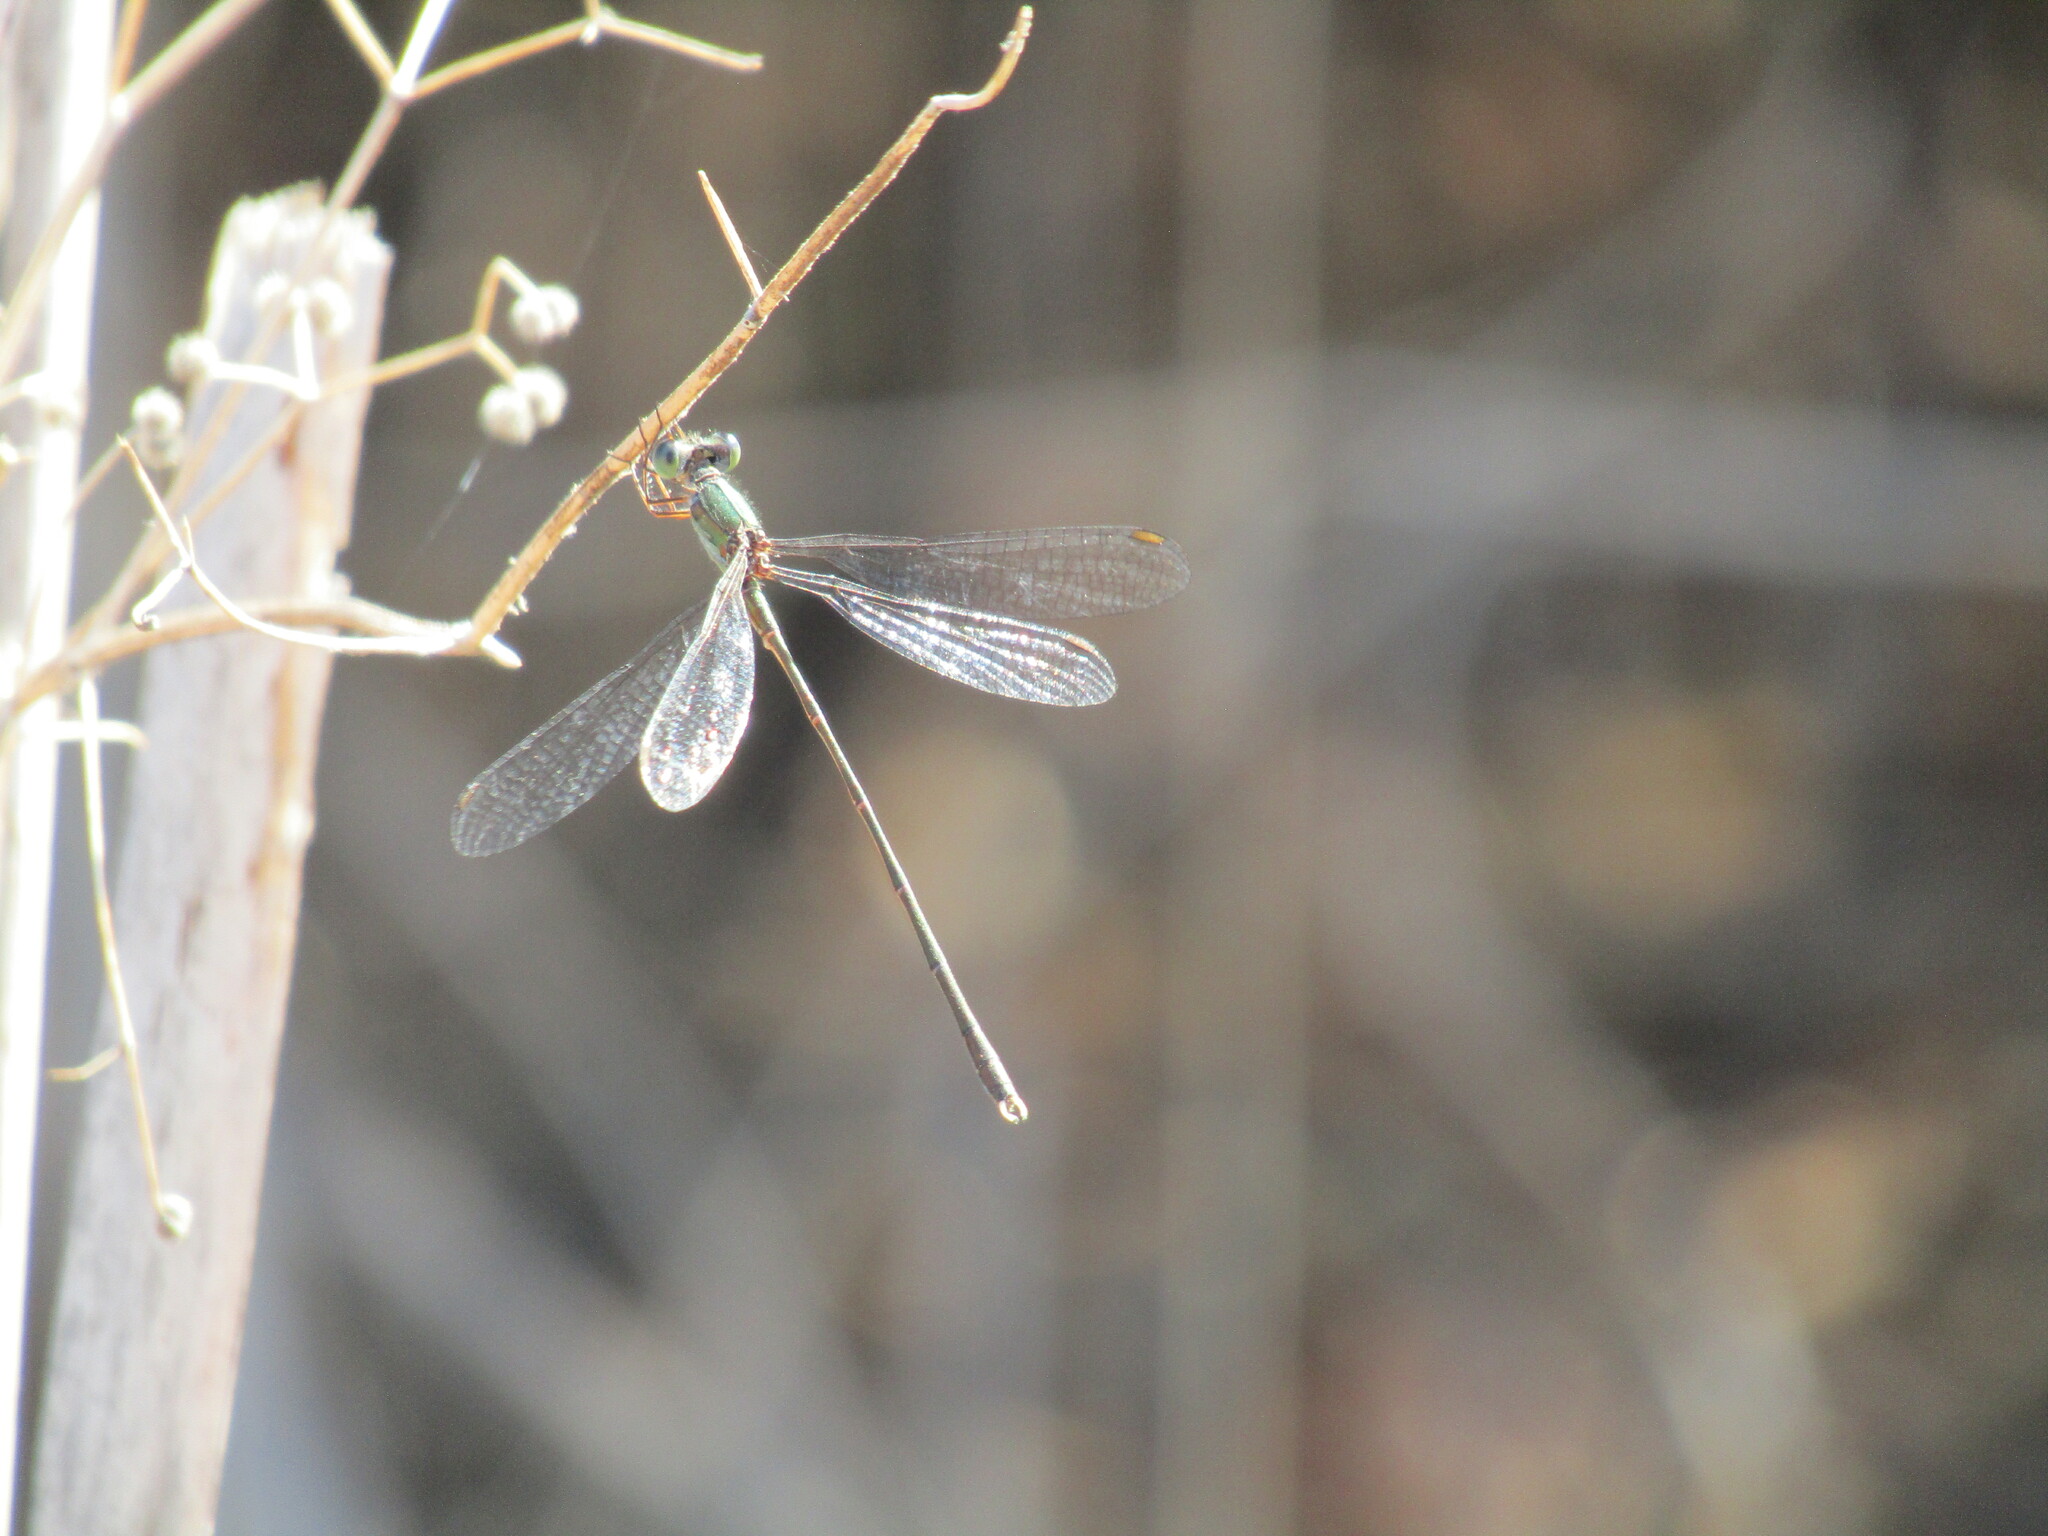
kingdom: Animalia
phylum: Arthropoda
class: Insecta
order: Odonata
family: Lestidae
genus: Chalcolestes
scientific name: Chalcolestes parvidens
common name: Eastern willow spreadwing
